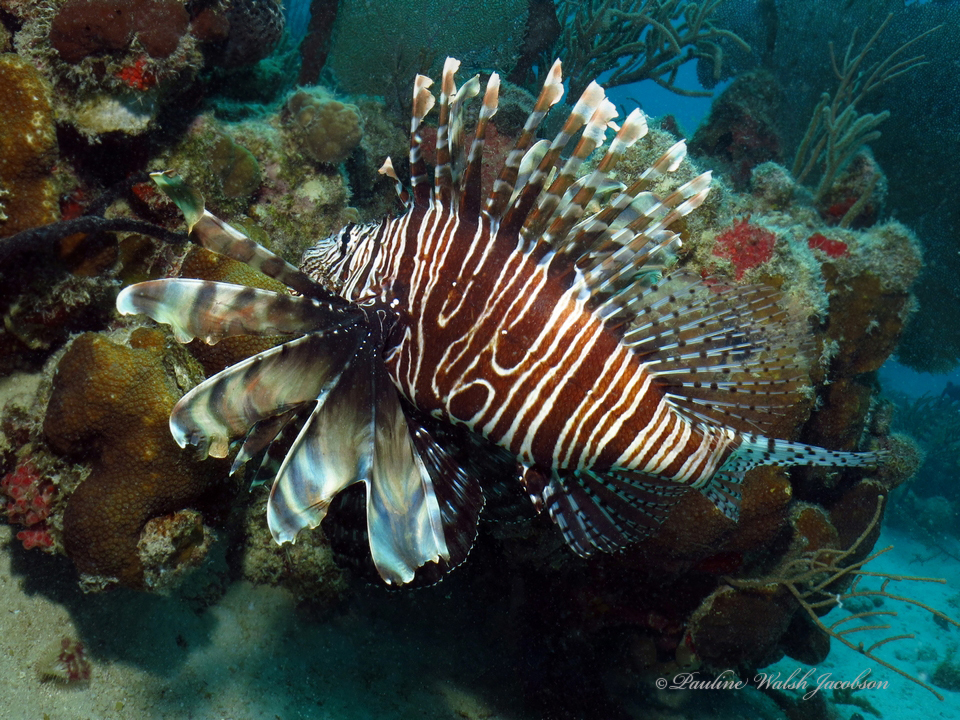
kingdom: Animalia
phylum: Chordata
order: Scorpaeniformes
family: Scorpaenidae
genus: Pterois
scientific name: Pterois volitans
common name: Lionfish
